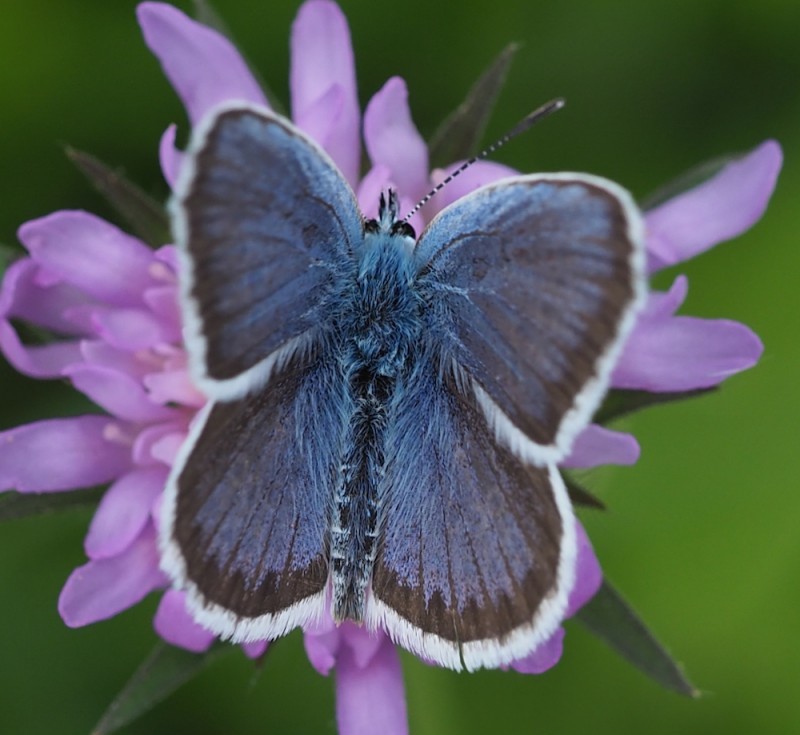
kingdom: Animalia
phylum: Arthropoda
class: Insecta
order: Lepidoptera
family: Lycaenidae
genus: Plebejus
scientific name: Plebejus argus
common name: Silver-studded blue
